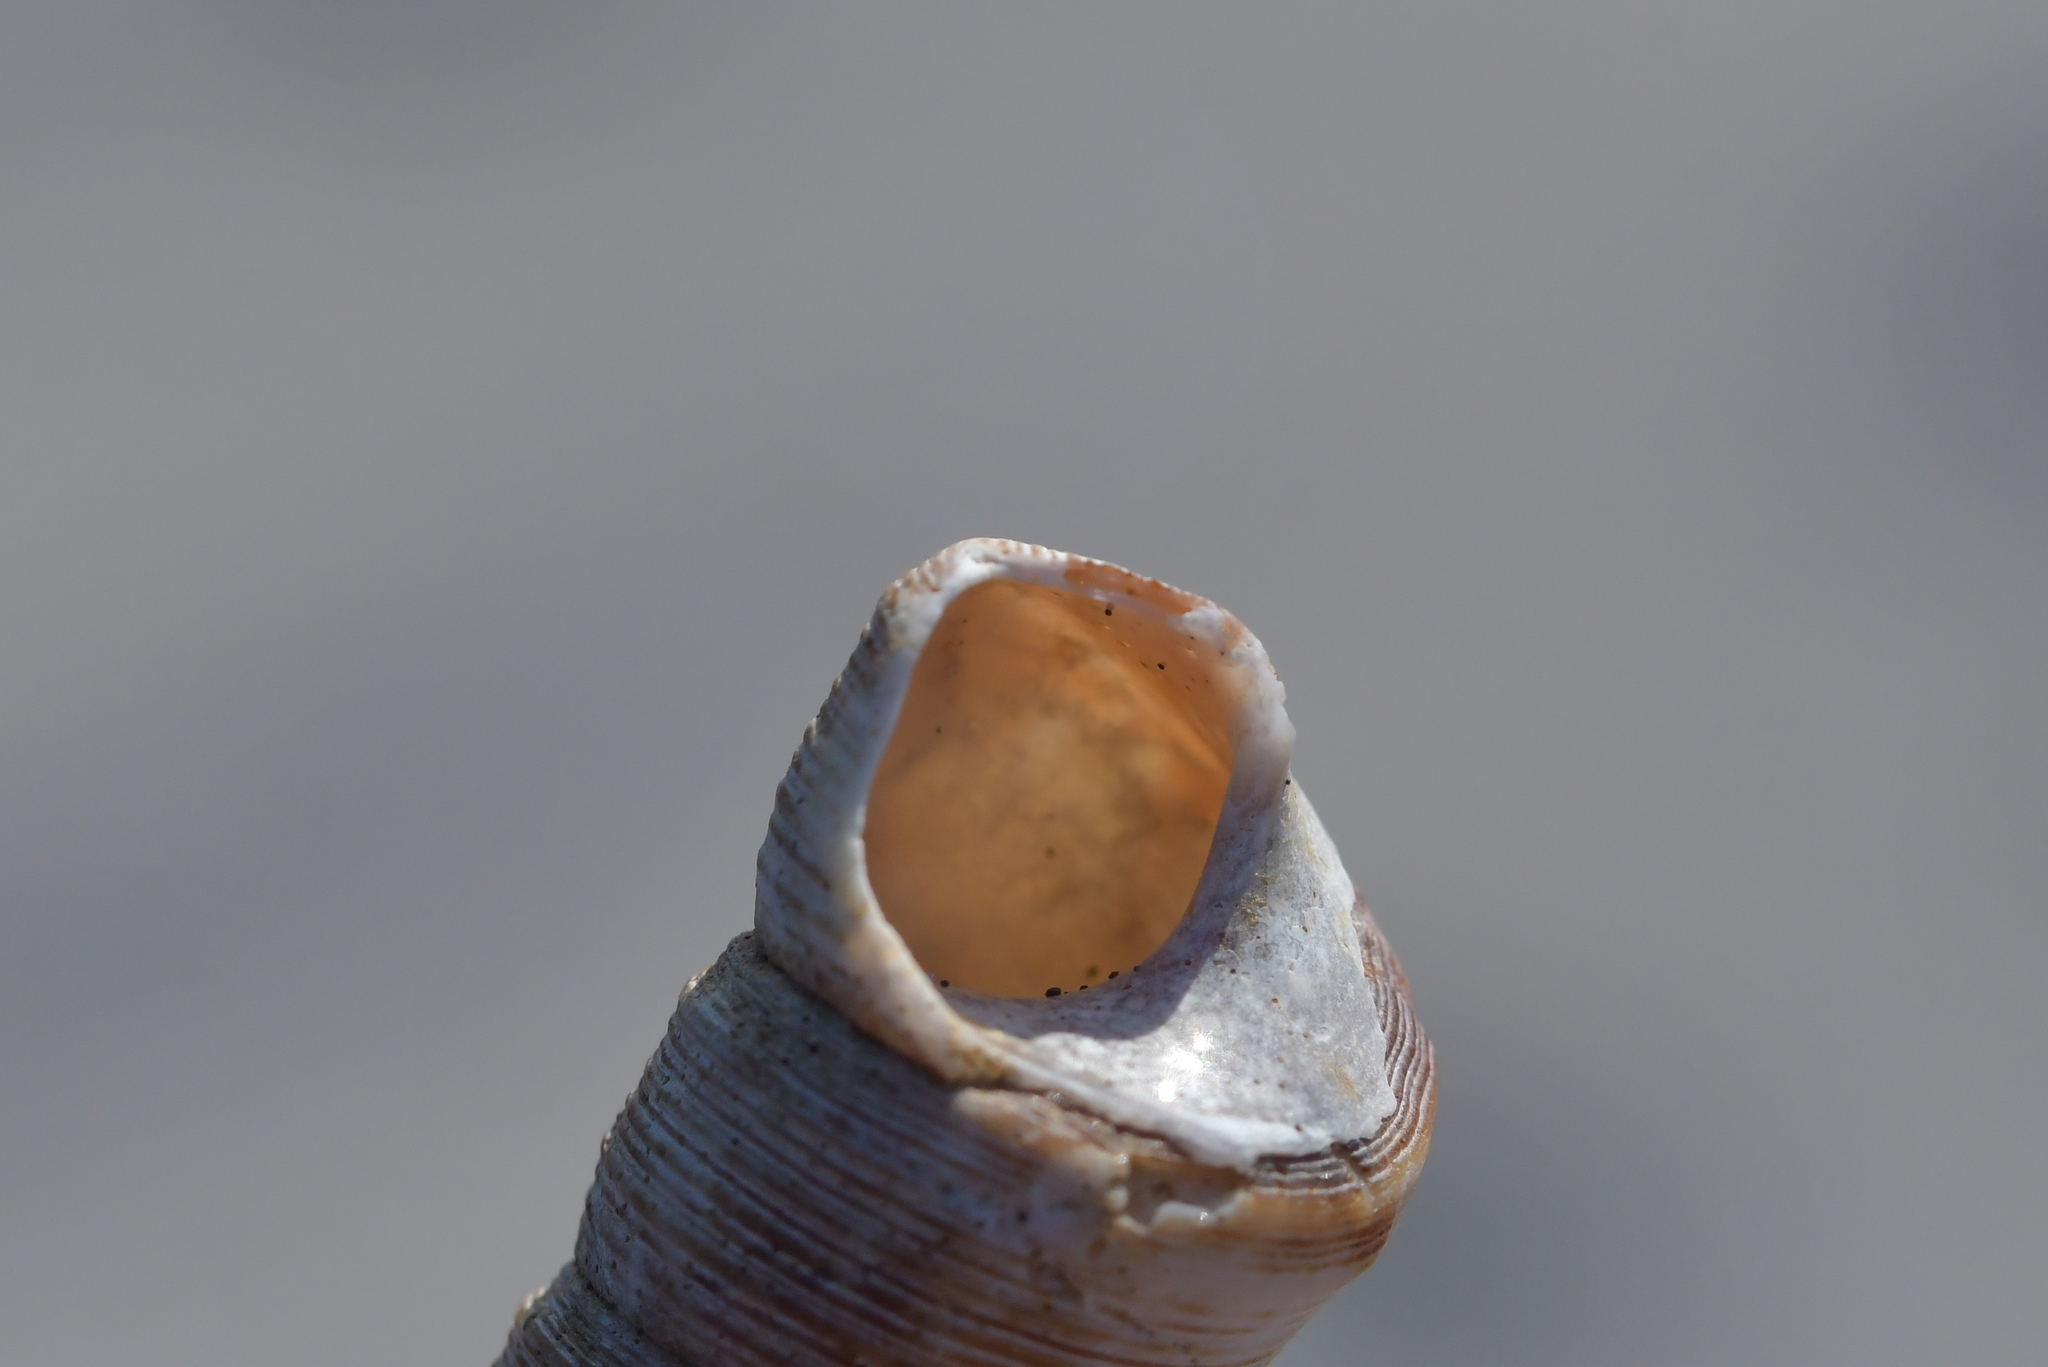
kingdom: Animalia
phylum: Mollusca
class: Gastropoda
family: Turritellidae
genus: Maoricolpus
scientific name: Maoricolpus roseus
